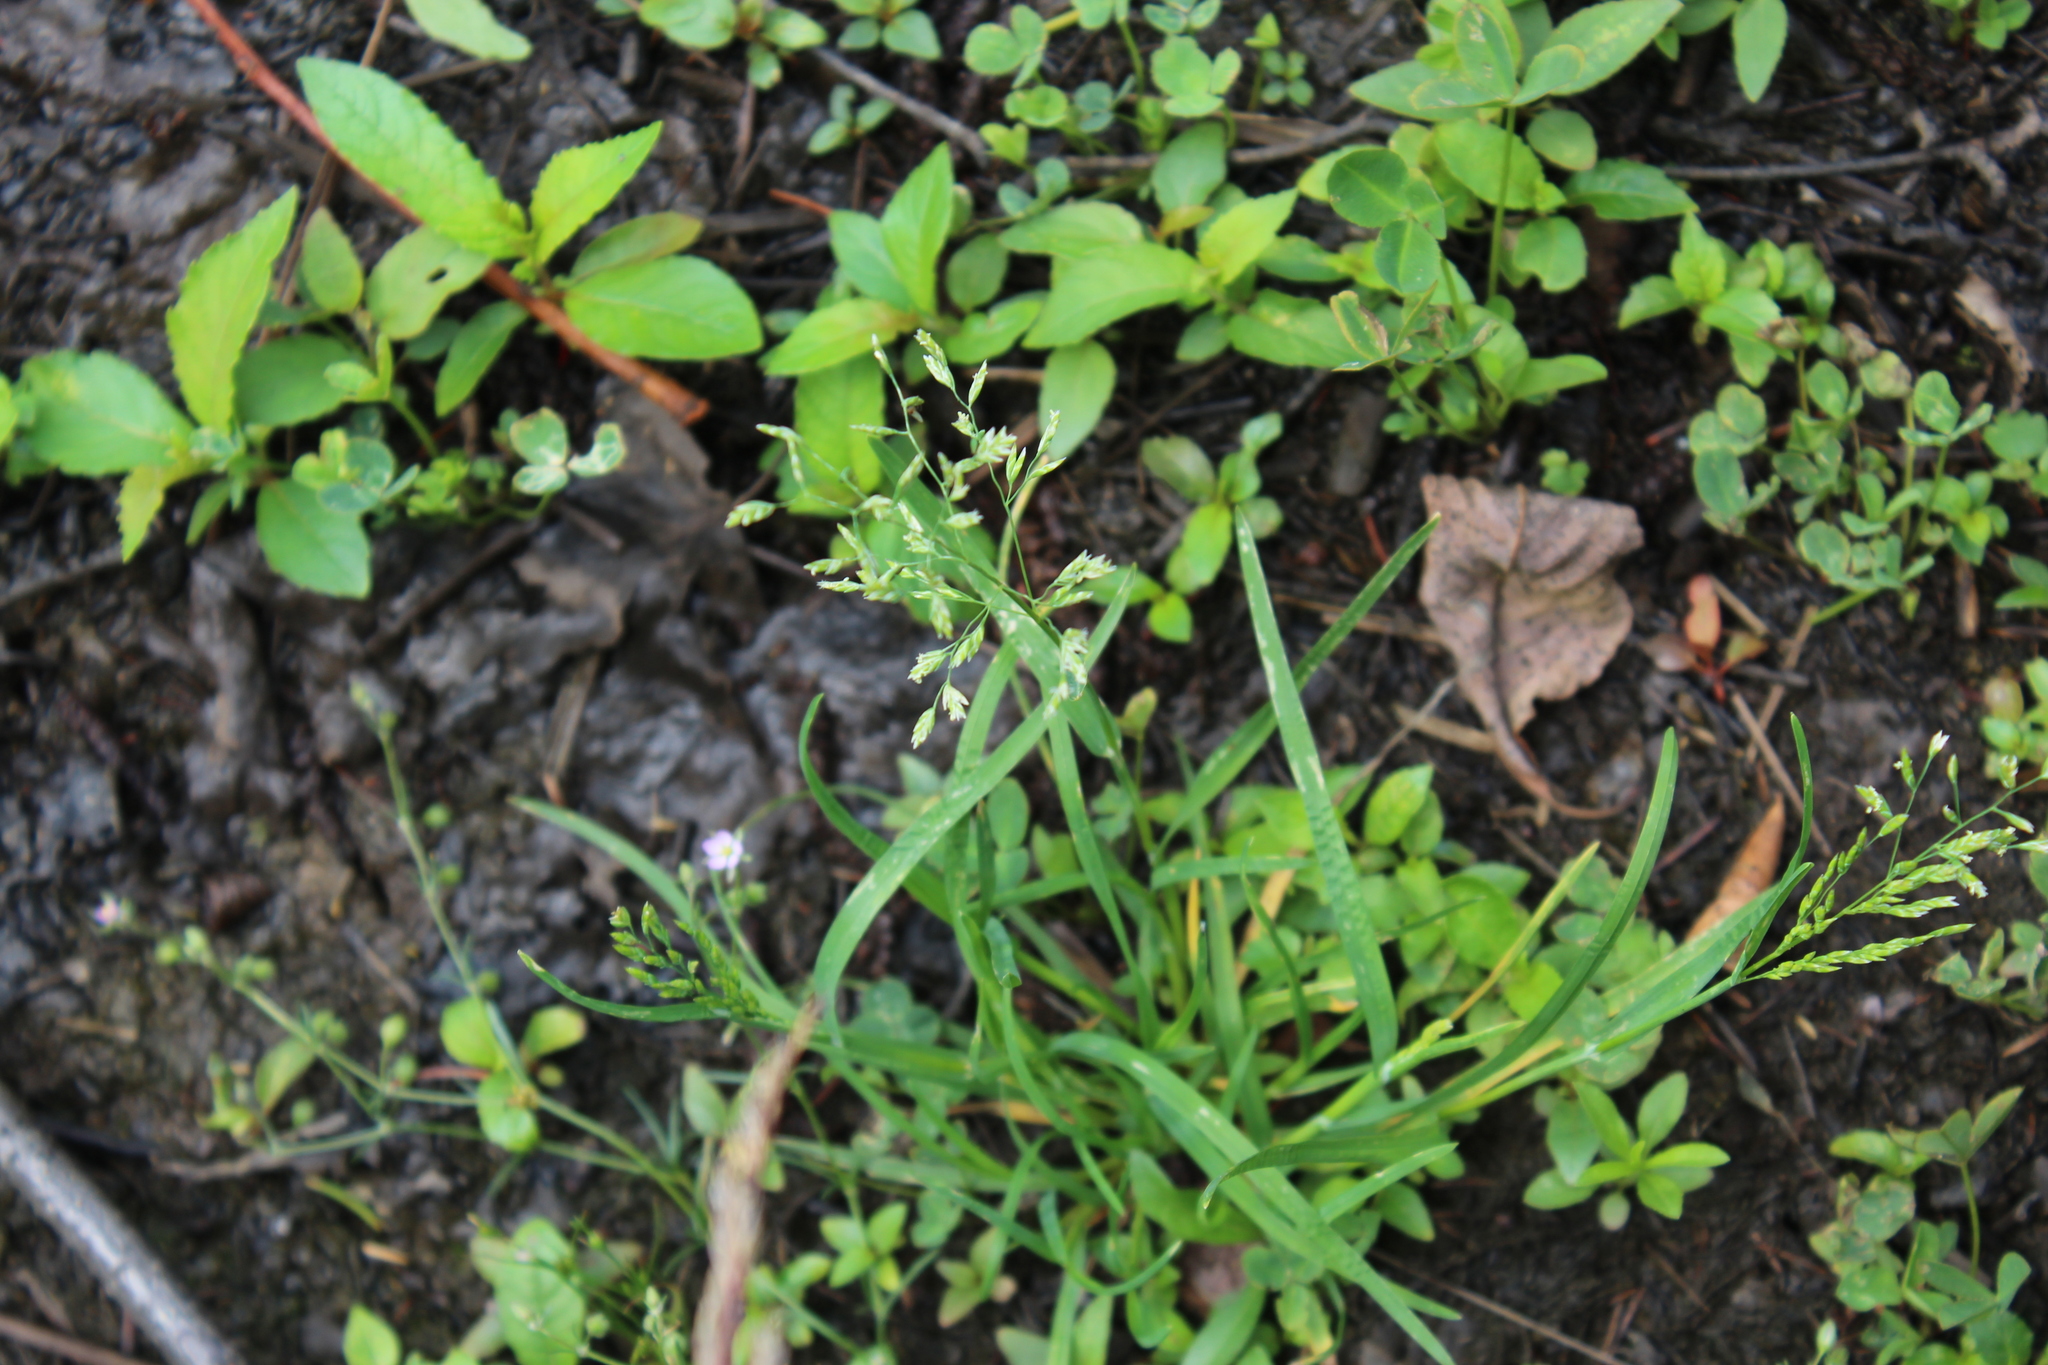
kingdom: Plantae
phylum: Tracheophyta
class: Liliopsida
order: Poales
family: Poaceae
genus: Poa
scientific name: Poa annua
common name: Annual bluegrass
